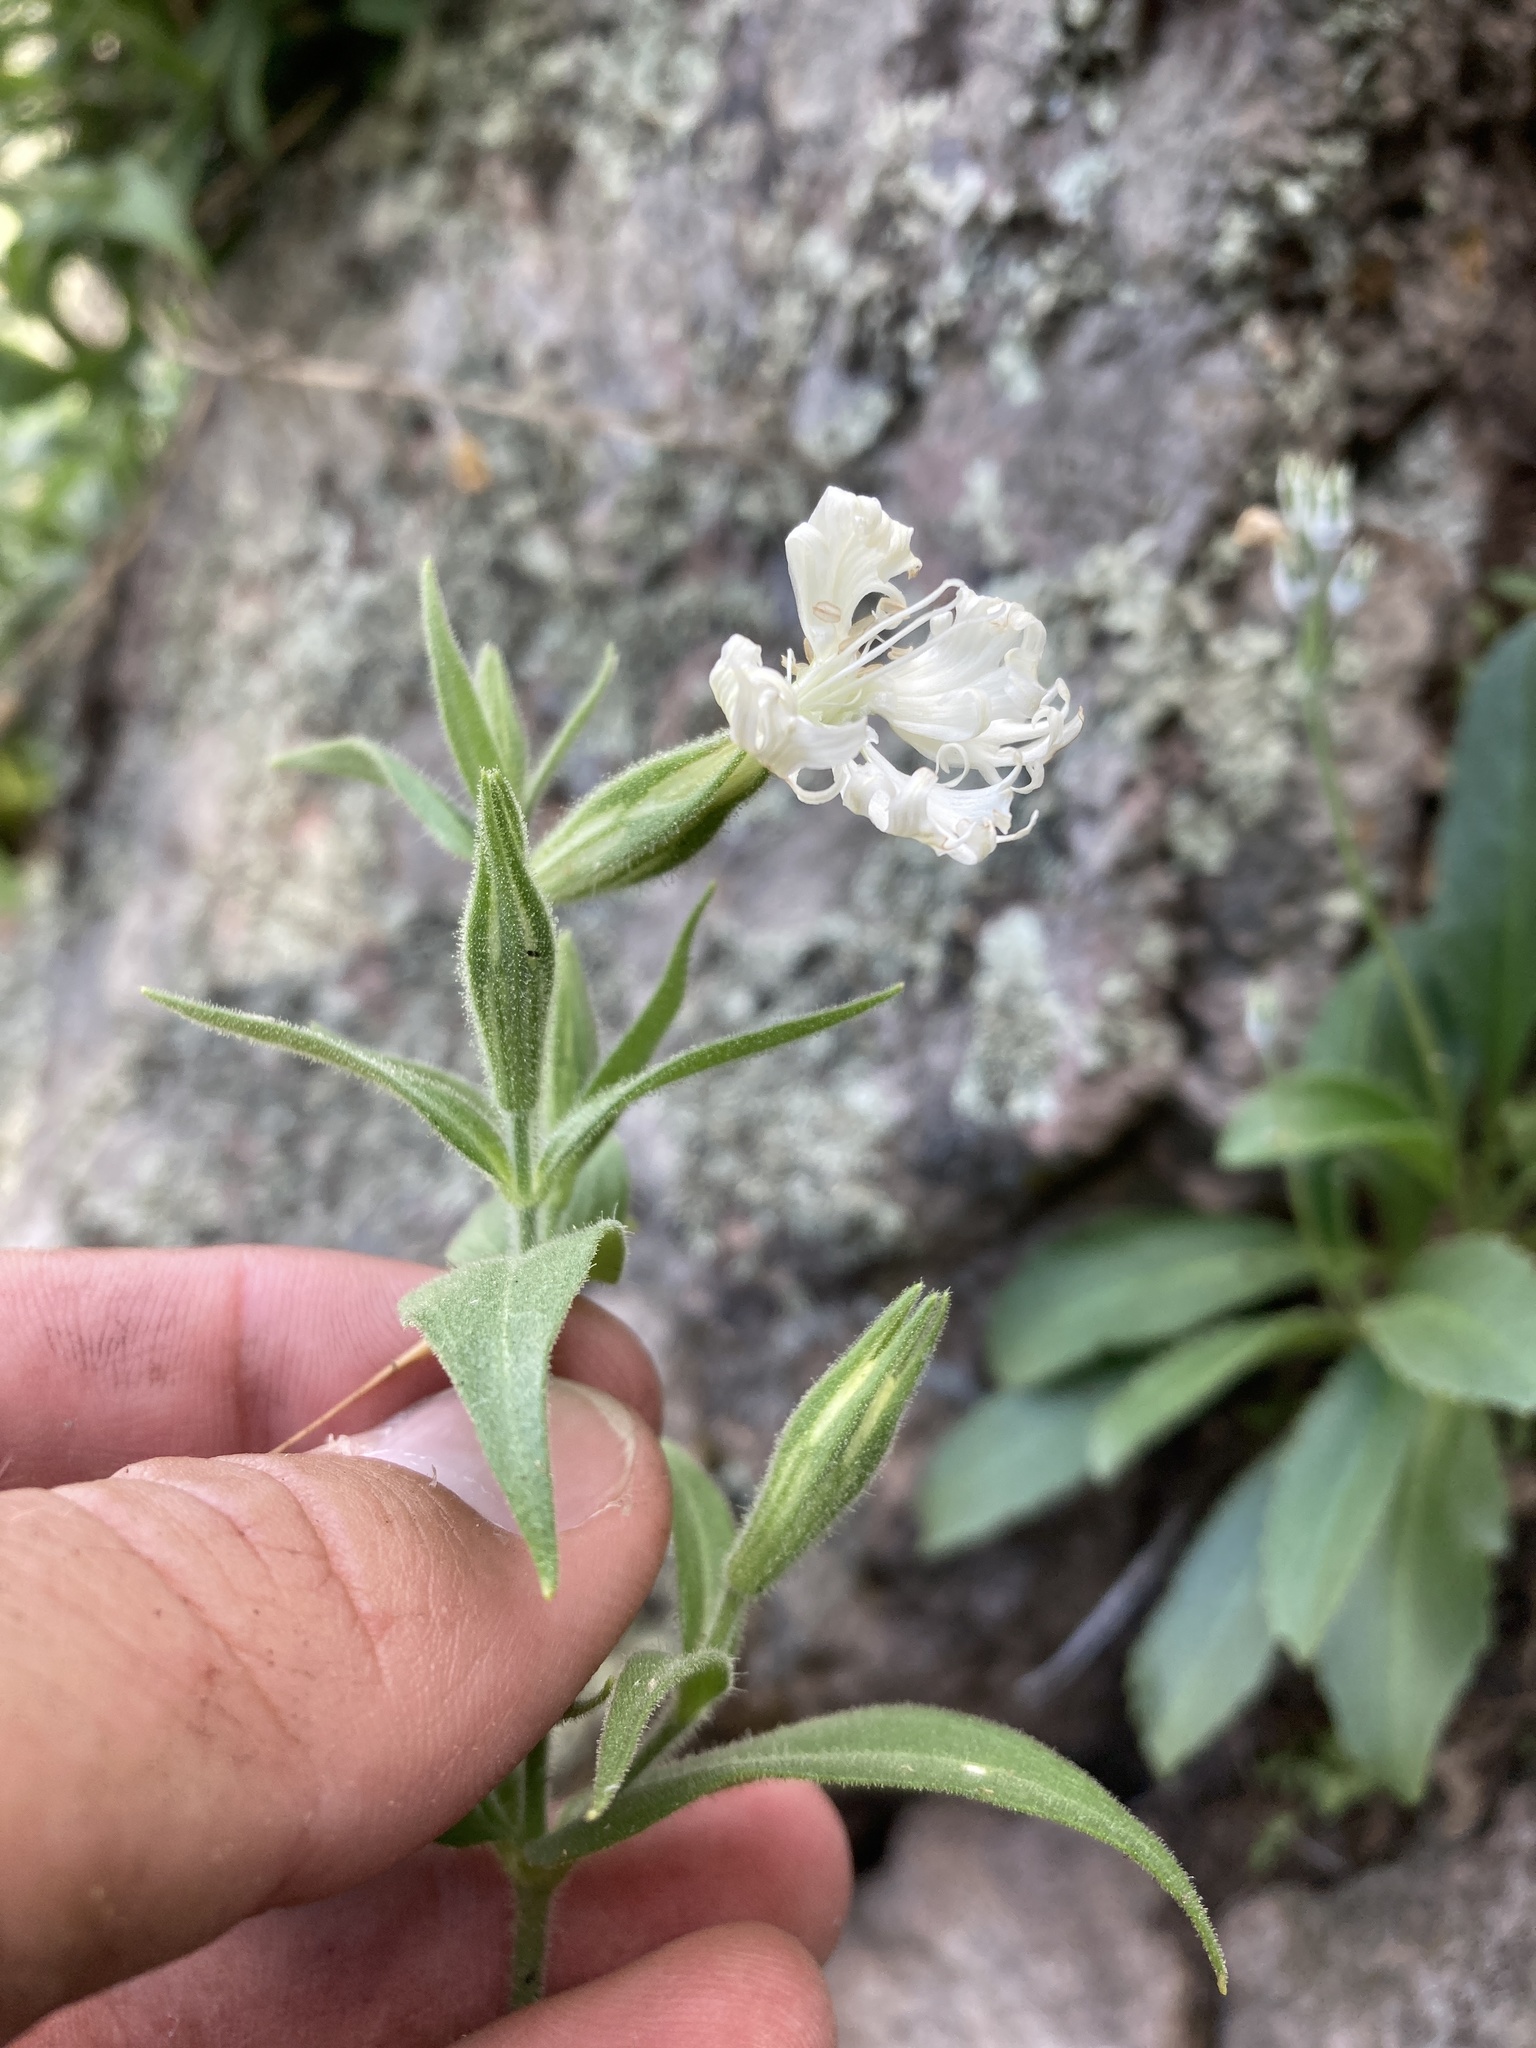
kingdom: Plantae
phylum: Tracheophyta
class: Magnoliopsida
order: Caryophyllales
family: Caryophyllaceae
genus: Silene
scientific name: Silene wrightii
